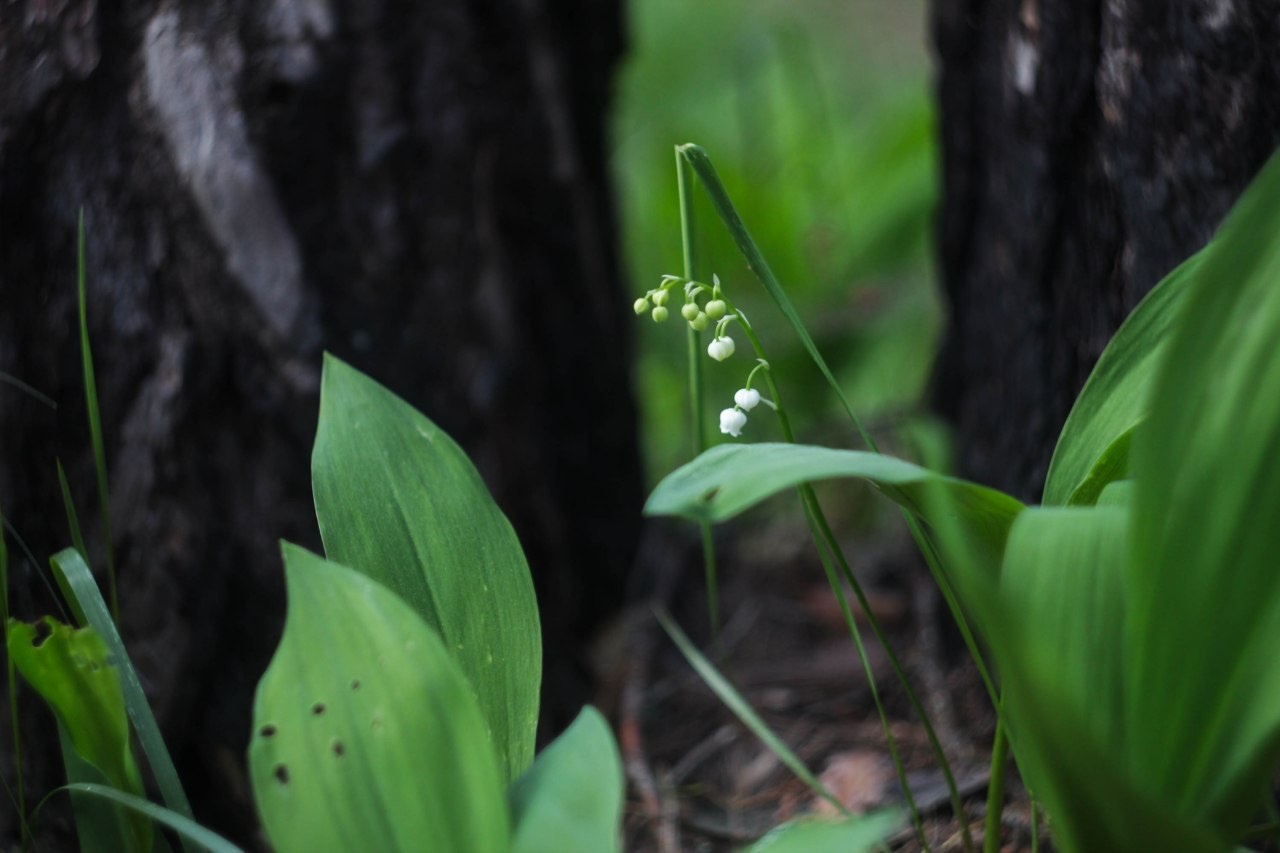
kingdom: Plantae
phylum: Tracheophyta
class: Liliopsida
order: Asparagales
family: Asparagaceae
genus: Convallaria
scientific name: Convallaria majalis
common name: Lily-of-the-valley
